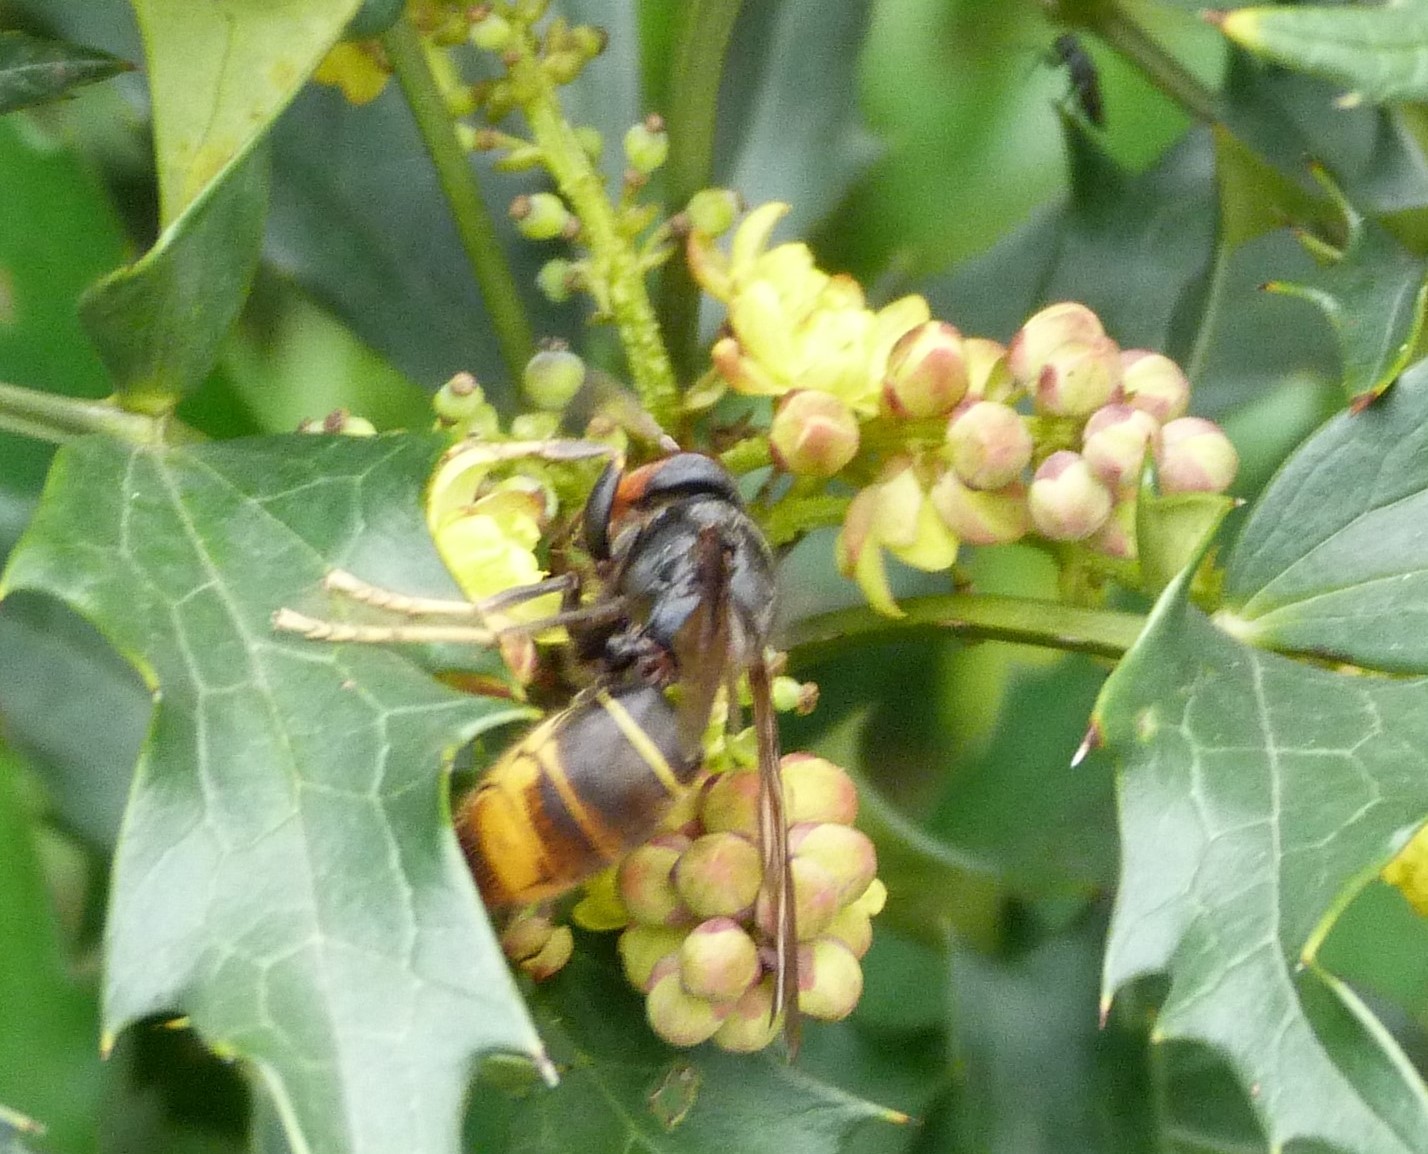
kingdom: Animalia
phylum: Arthropoda
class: Insecta
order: Hymenoptera
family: Vespidae
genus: Vespa
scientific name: Vespa velutina
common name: Asian hornet
